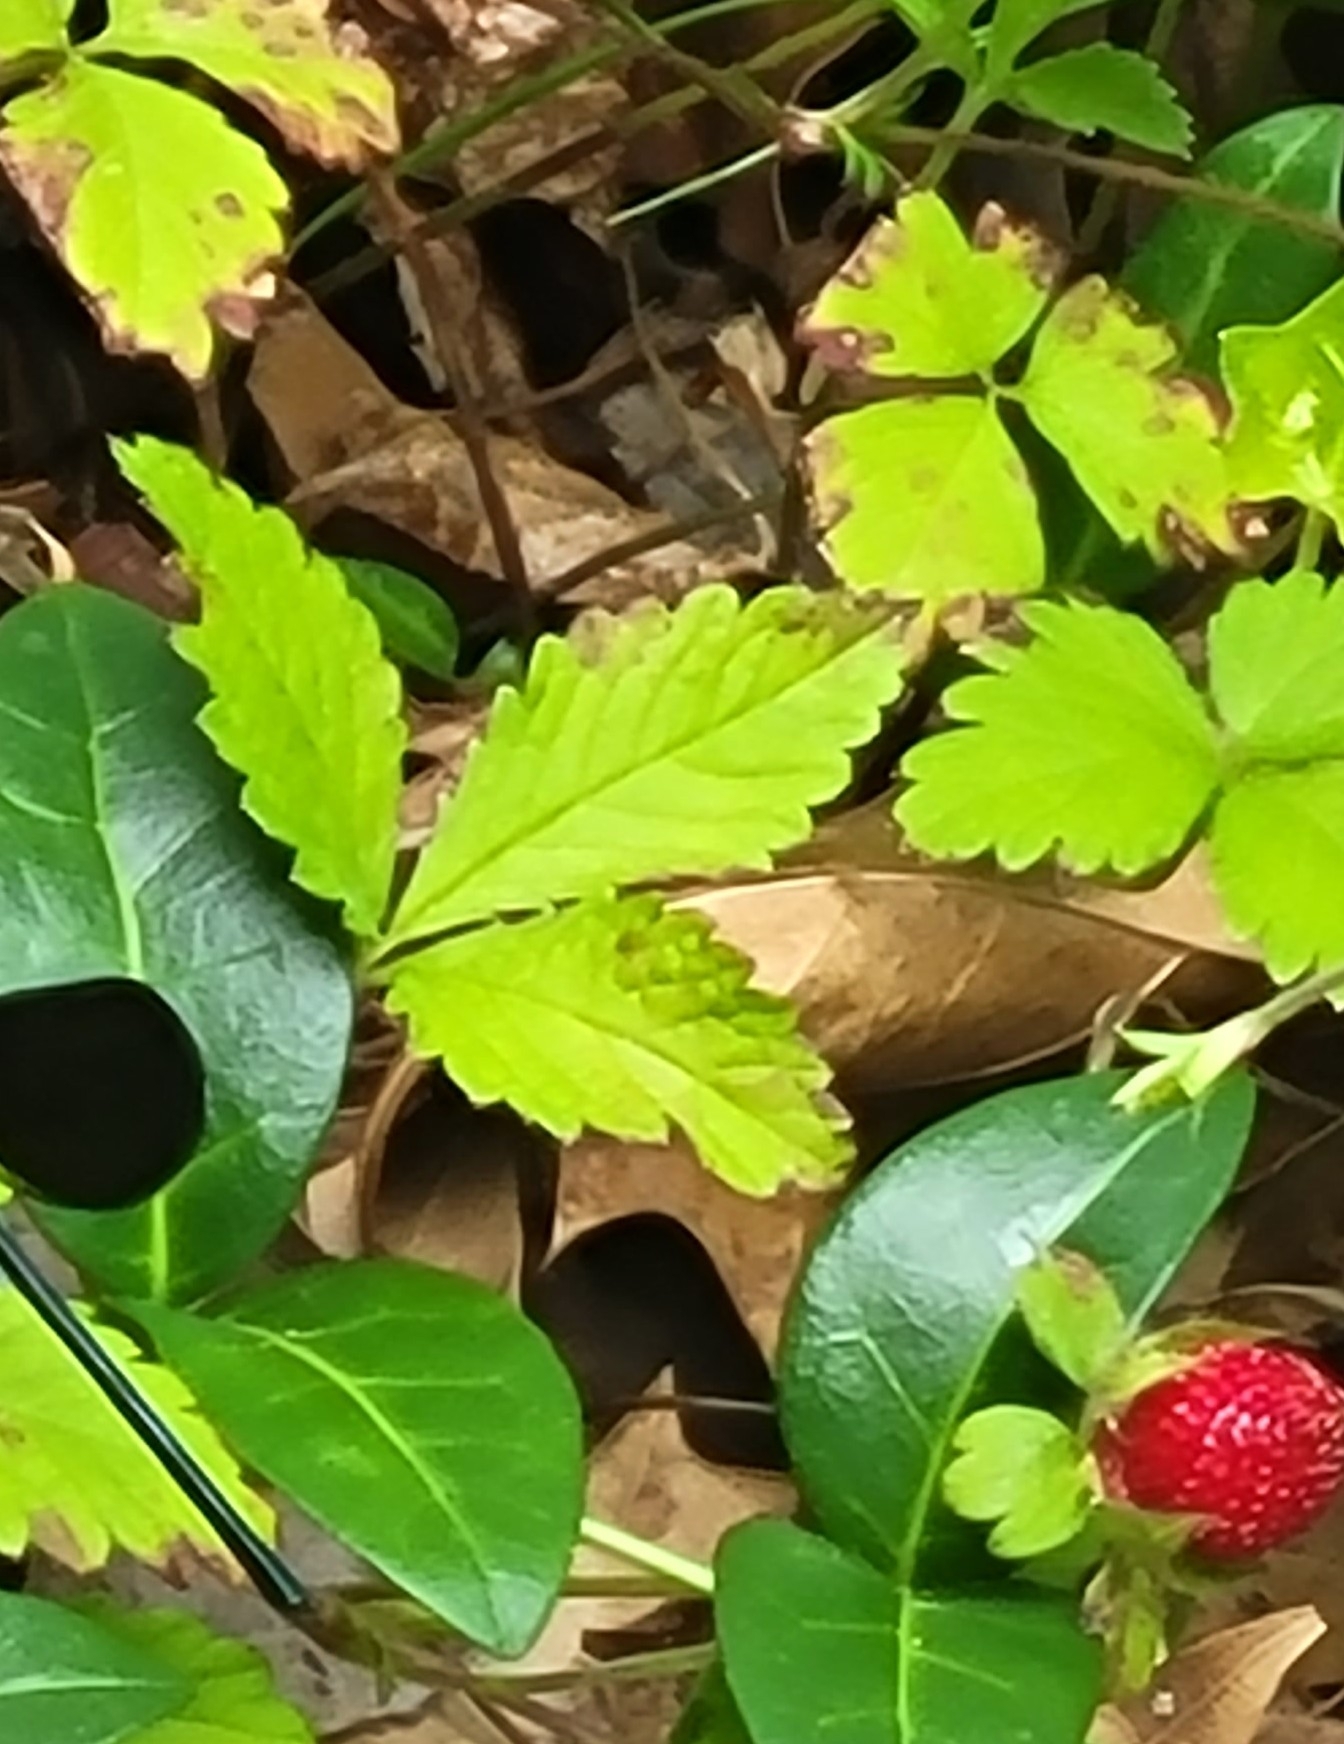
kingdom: Plantae
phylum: Tracheophyta
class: Magnoliopsida
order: Rosales
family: Rosaceae
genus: Potentilla
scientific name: Potentilla indica
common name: Yellow-flowered strawberry
